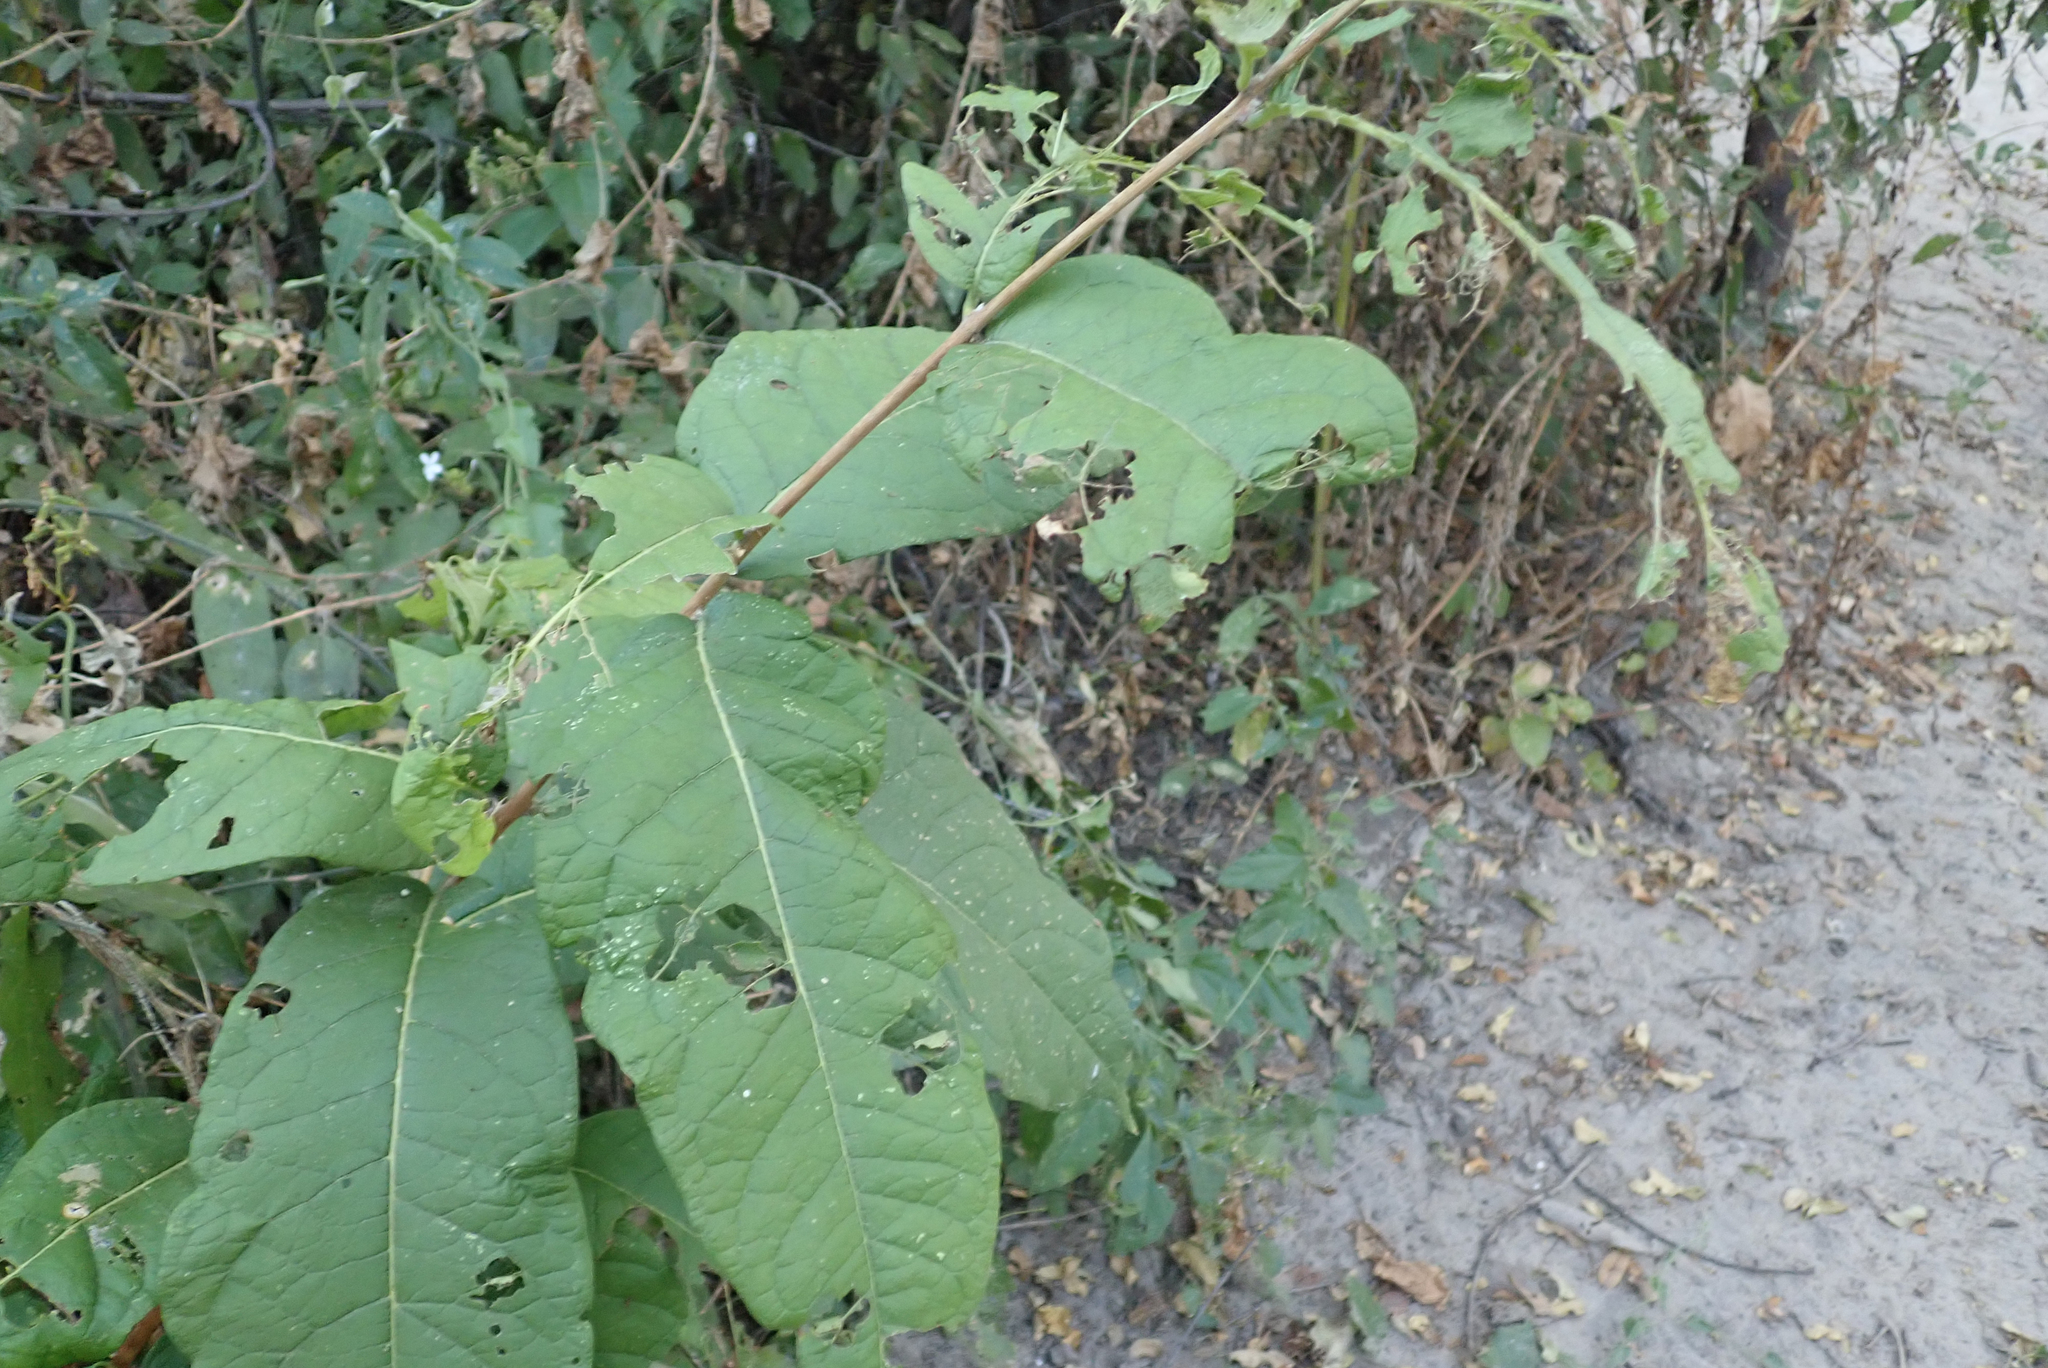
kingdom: Plantae
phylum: Tracheophyta
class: Magnoliopsida
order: Myrtales
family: Combretaceae
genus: Combretum
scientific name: Combretum mossambicense
